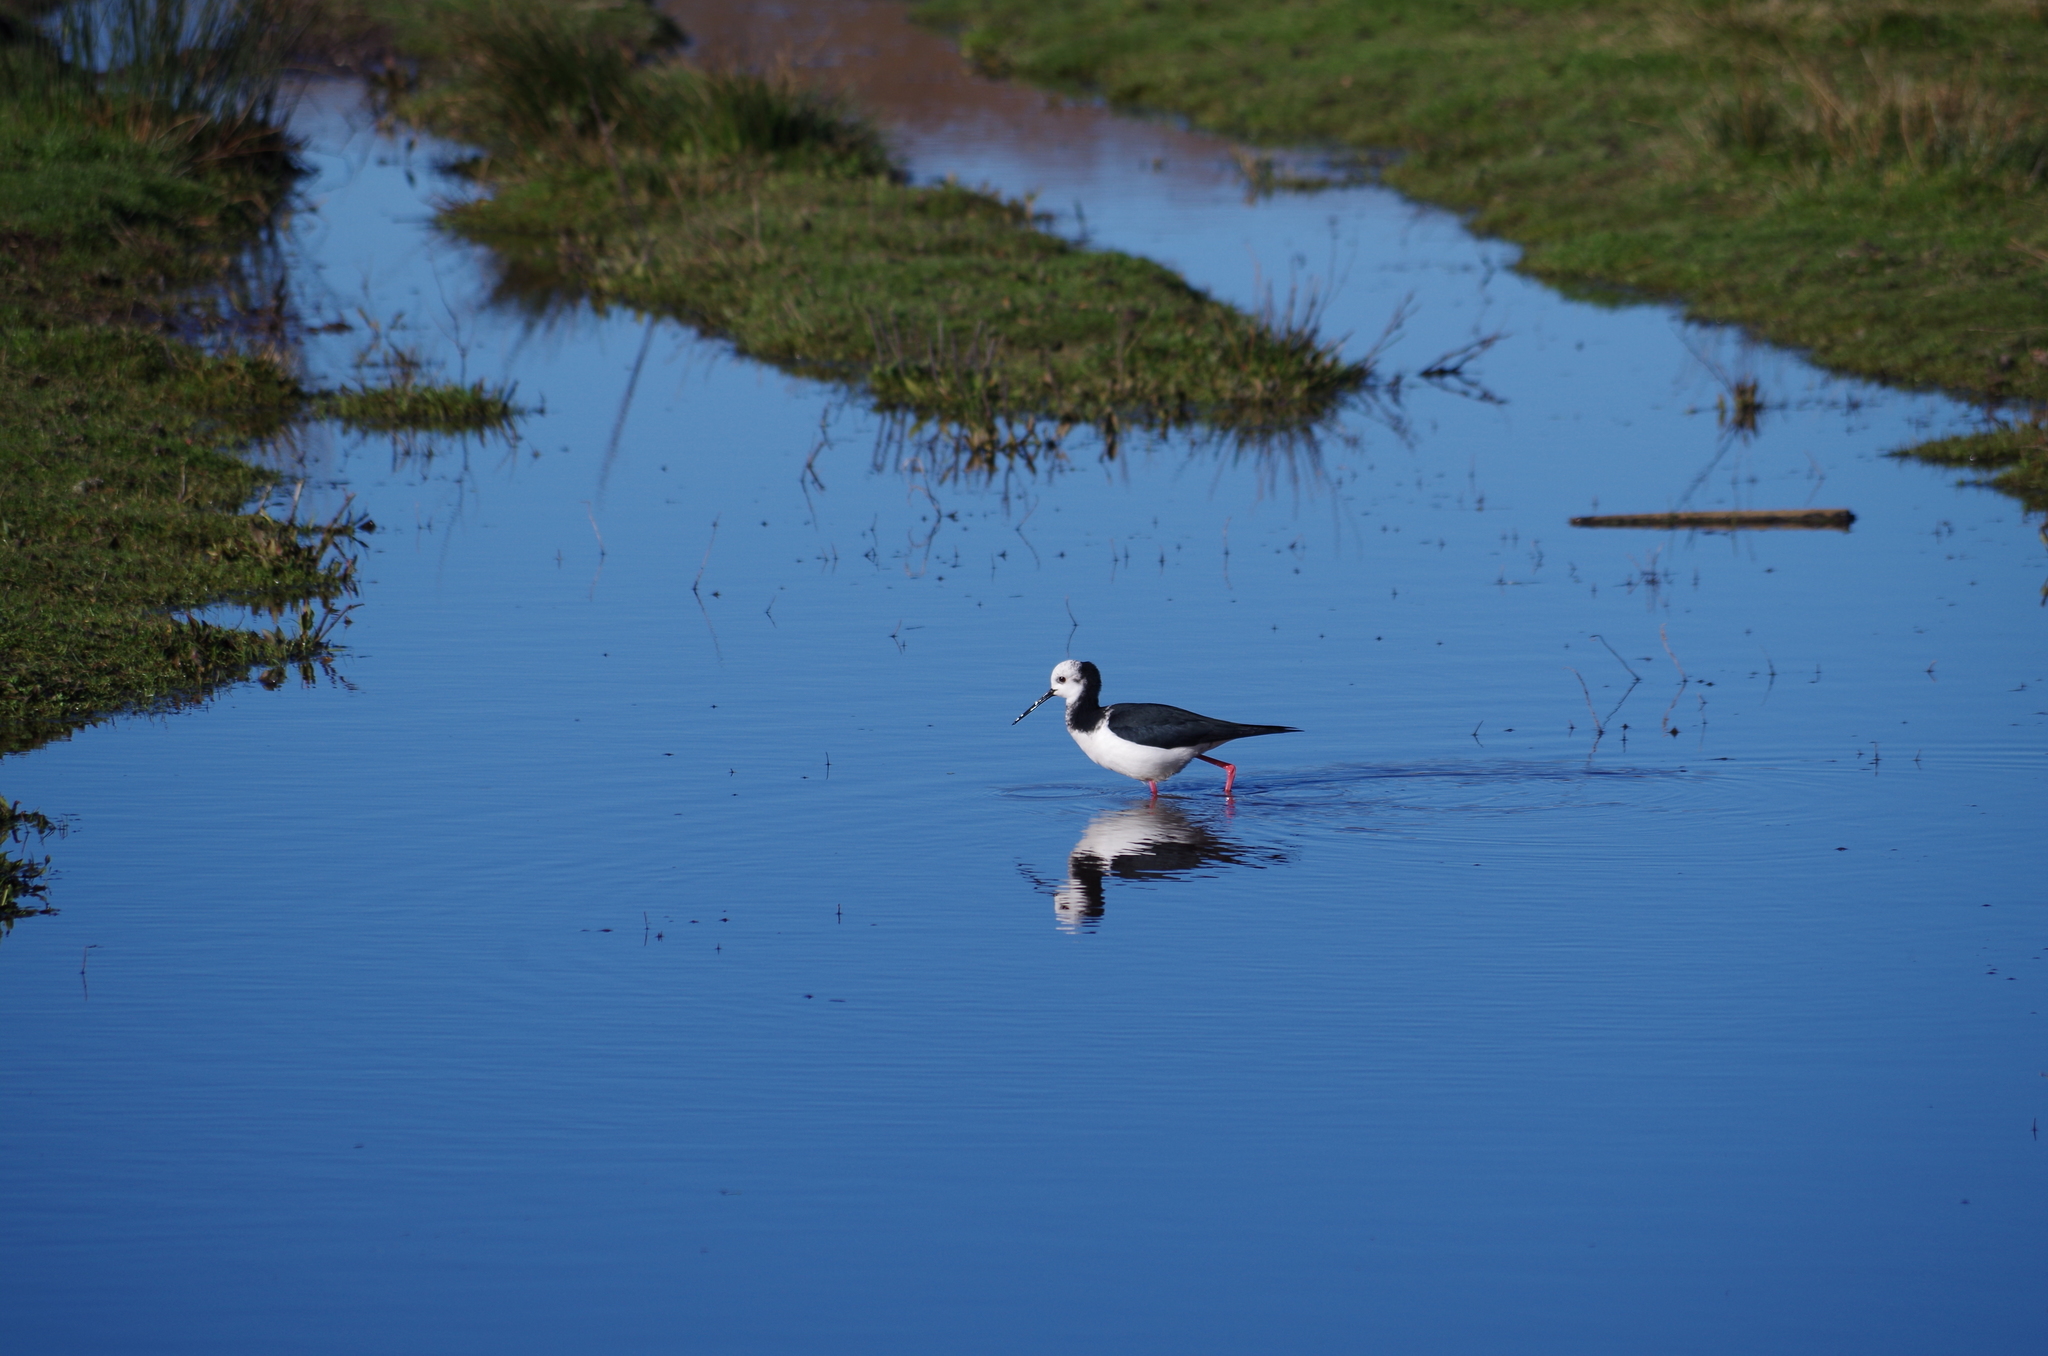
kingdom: Animalia
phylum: Chordata
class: Aves
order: Charadriiformes
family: Recurvirostridae
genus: Himantopus
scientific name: Himantopus leucocephalus
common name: White-headed stilt
